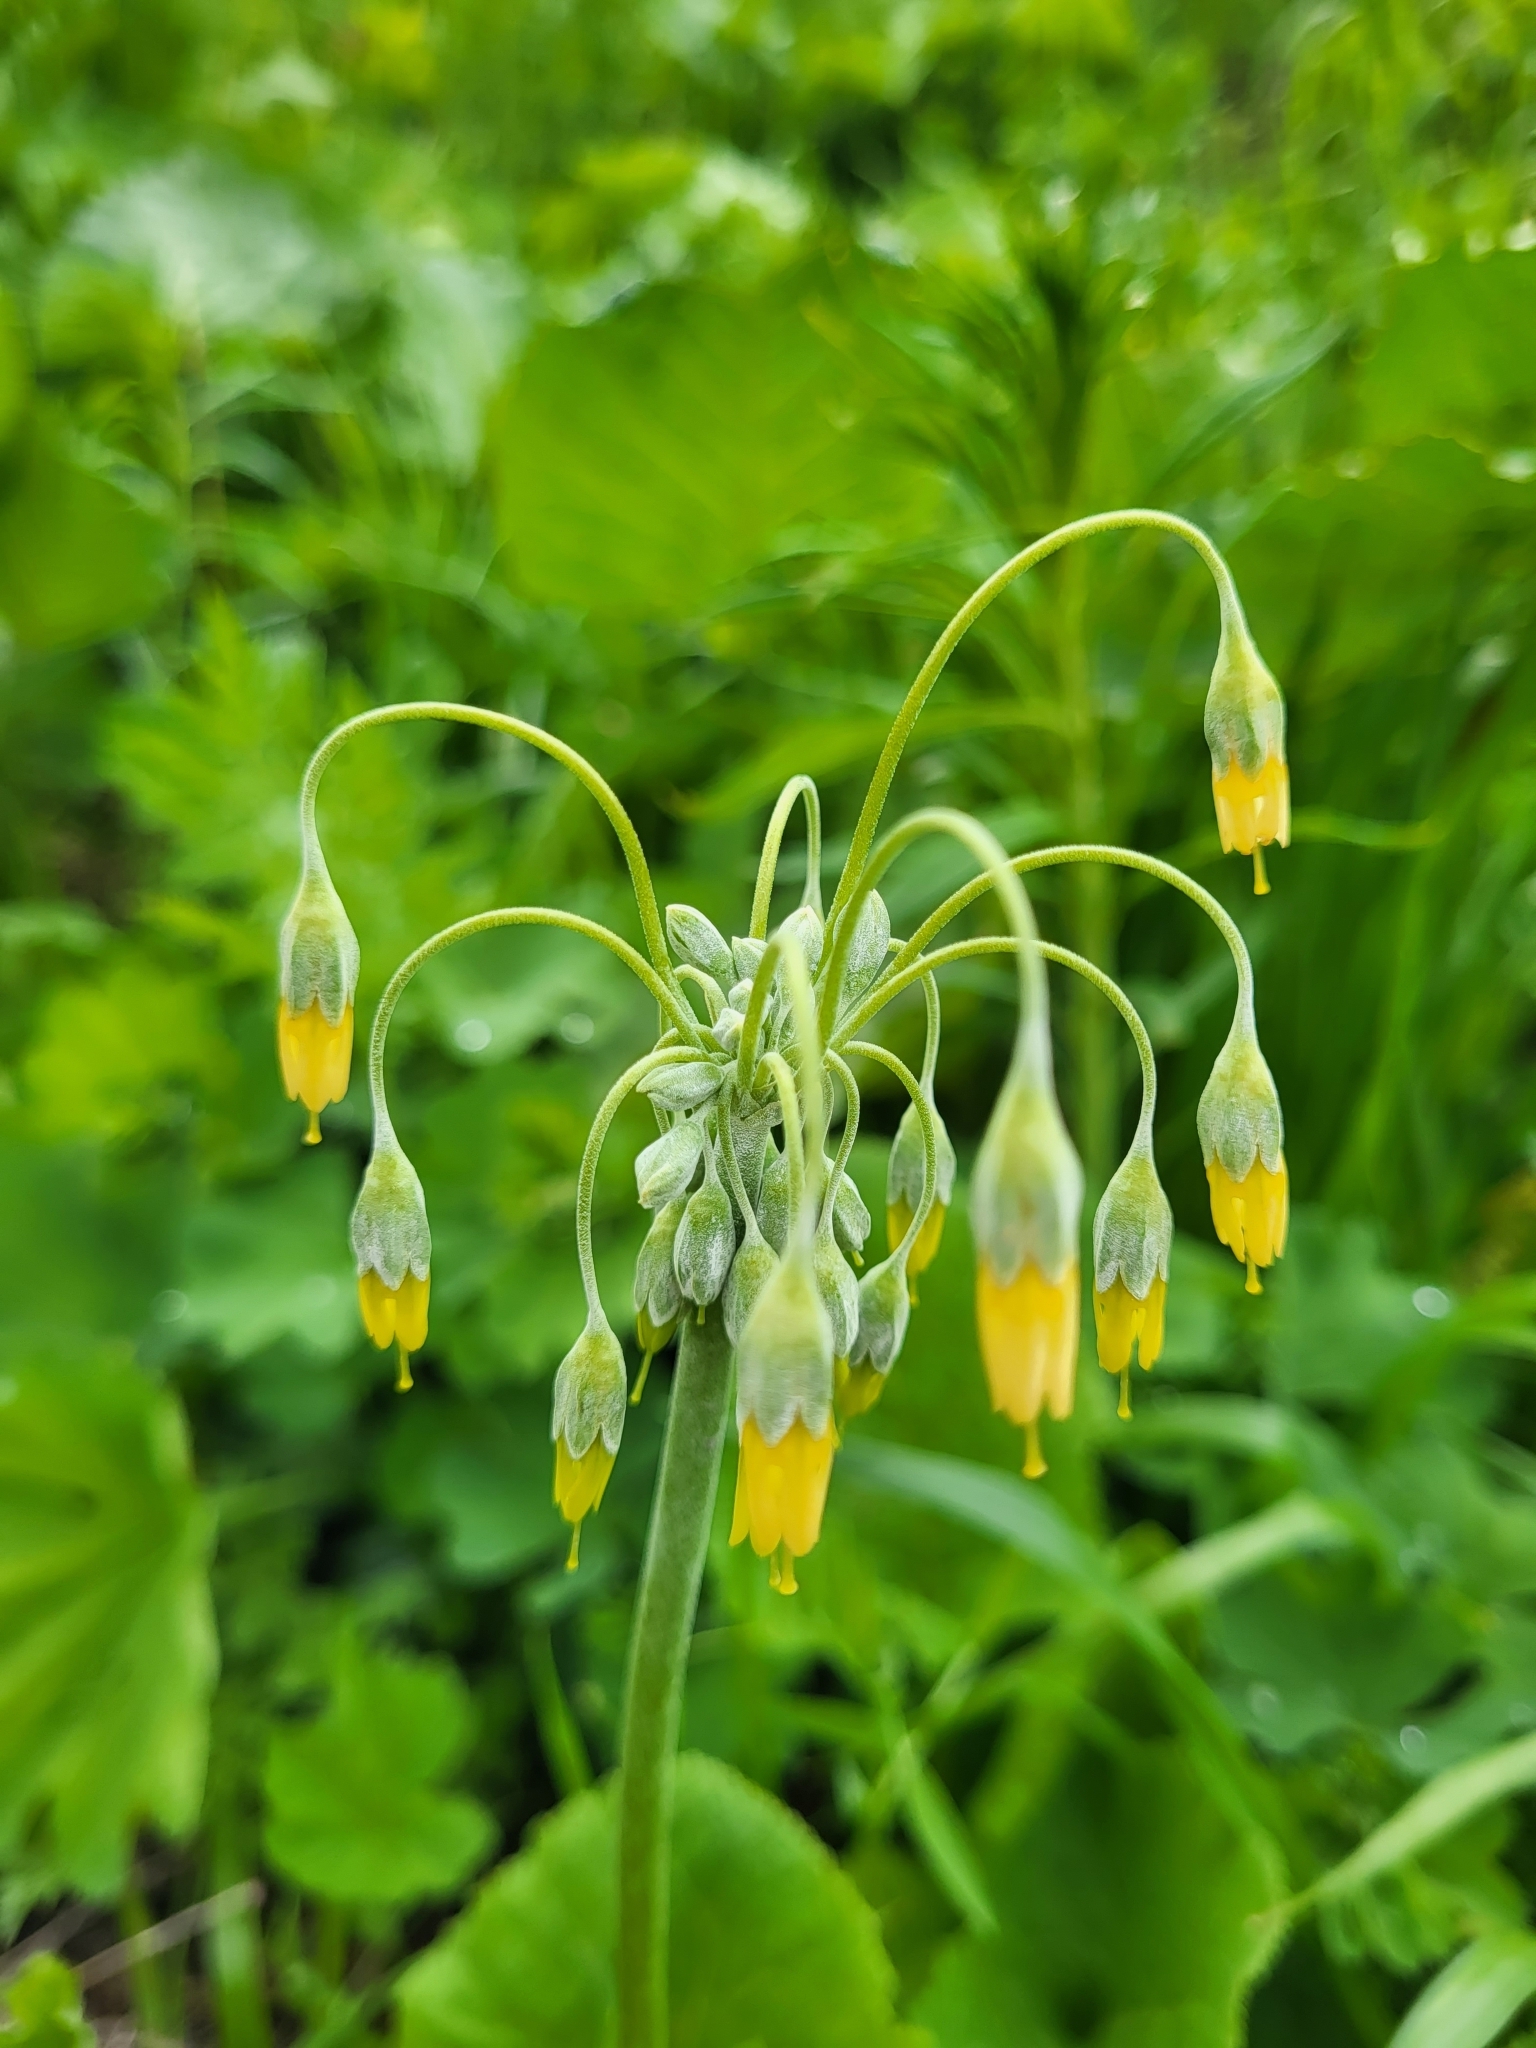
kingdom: Plantae
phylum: Tracheophyta
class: Magnoliopsida
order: Ericales
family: Primulaceae
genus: Primula
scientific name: Primula grandis
